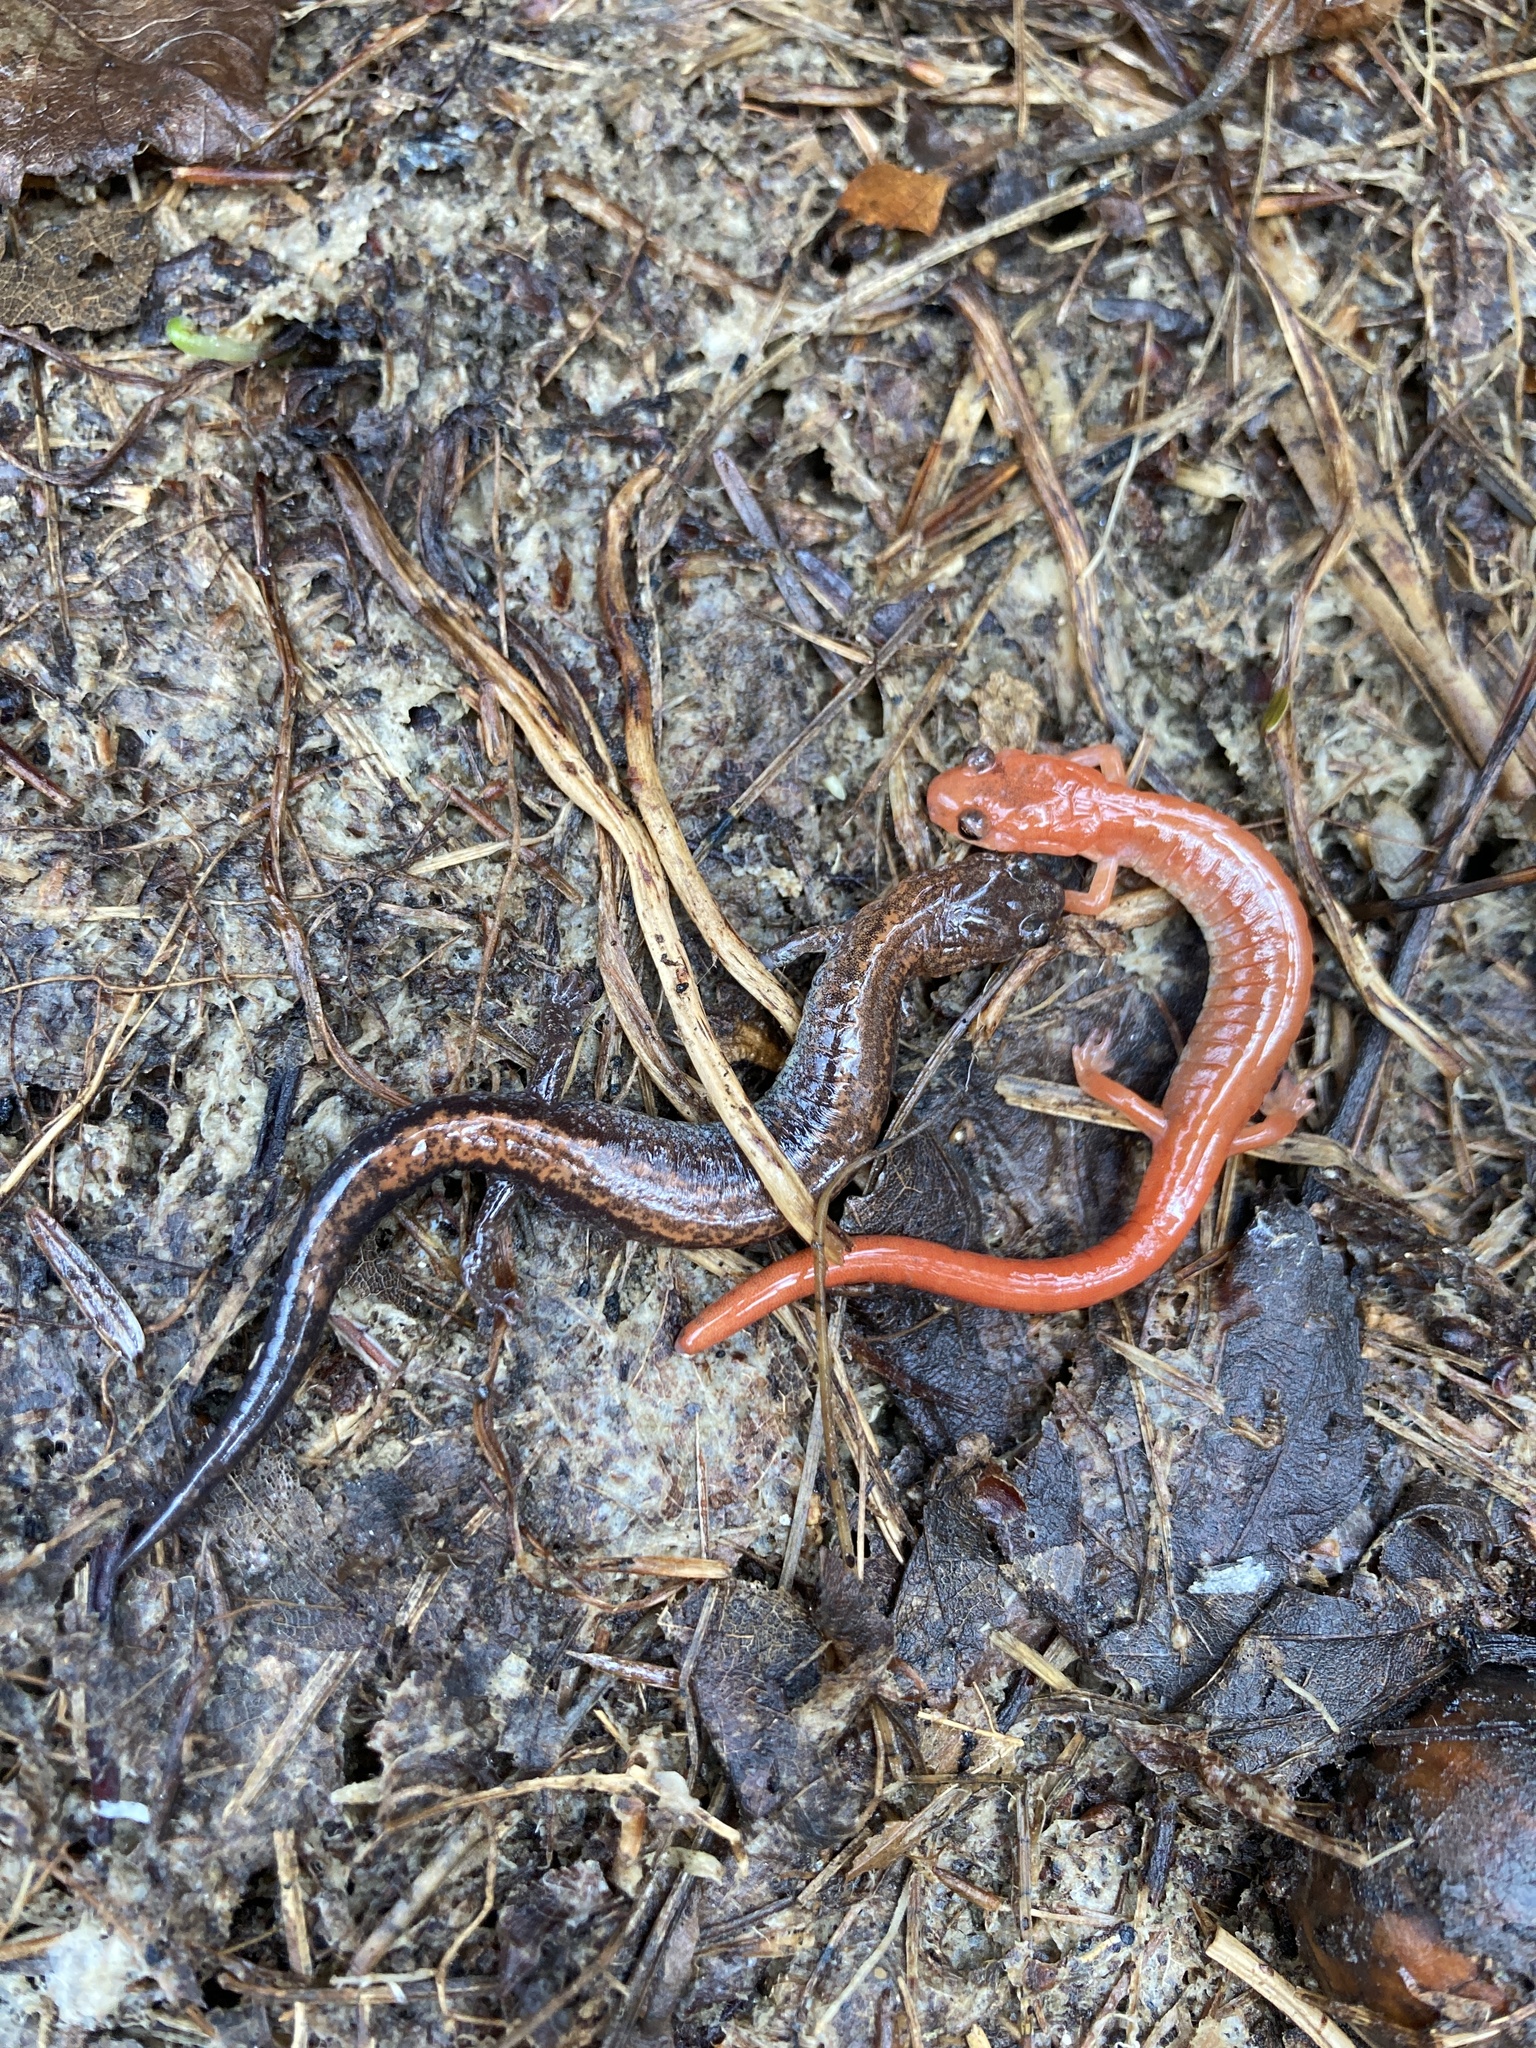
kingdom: Animalia
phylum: Chordata
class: Amphibia
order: Caudata
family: Plethodontidae
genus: Plethodon
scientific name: Plethodon cinereus
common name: Redback salamander
